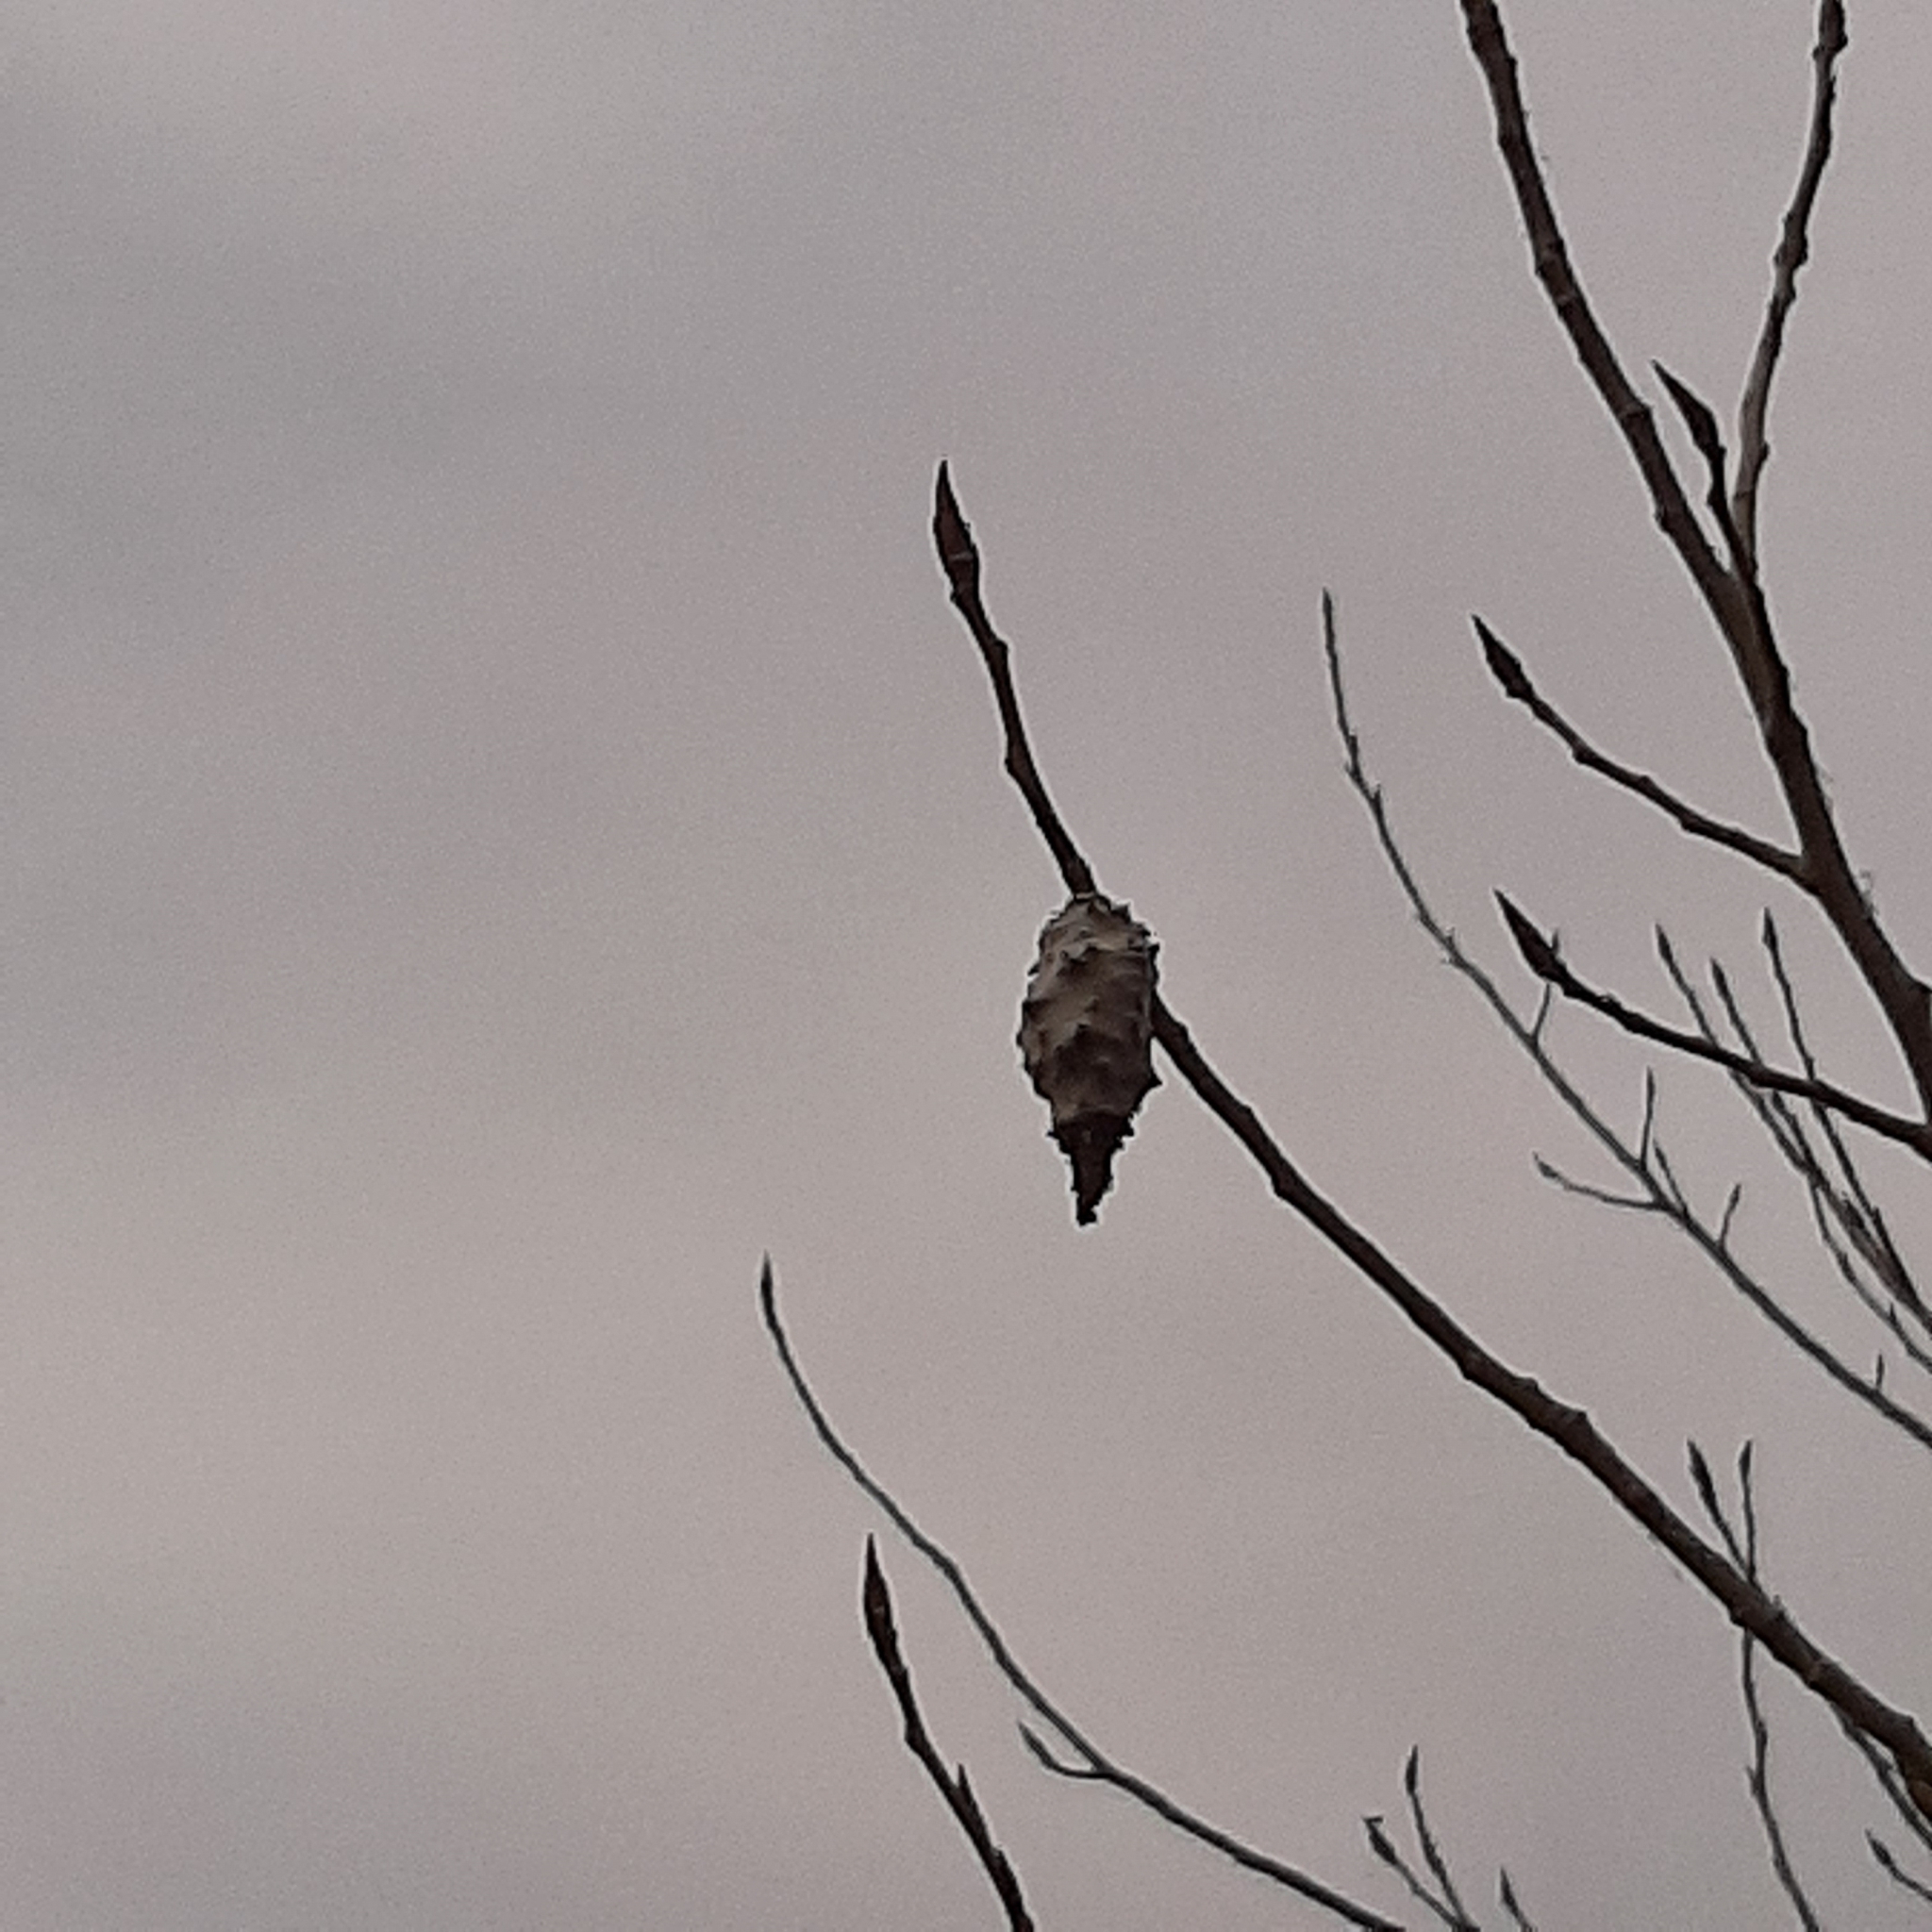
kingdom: Animalia
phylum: Arthropoda
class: Insecta
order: Lepidoptera
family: Psychidae
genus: Oiketicus
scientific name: Oiketicus
